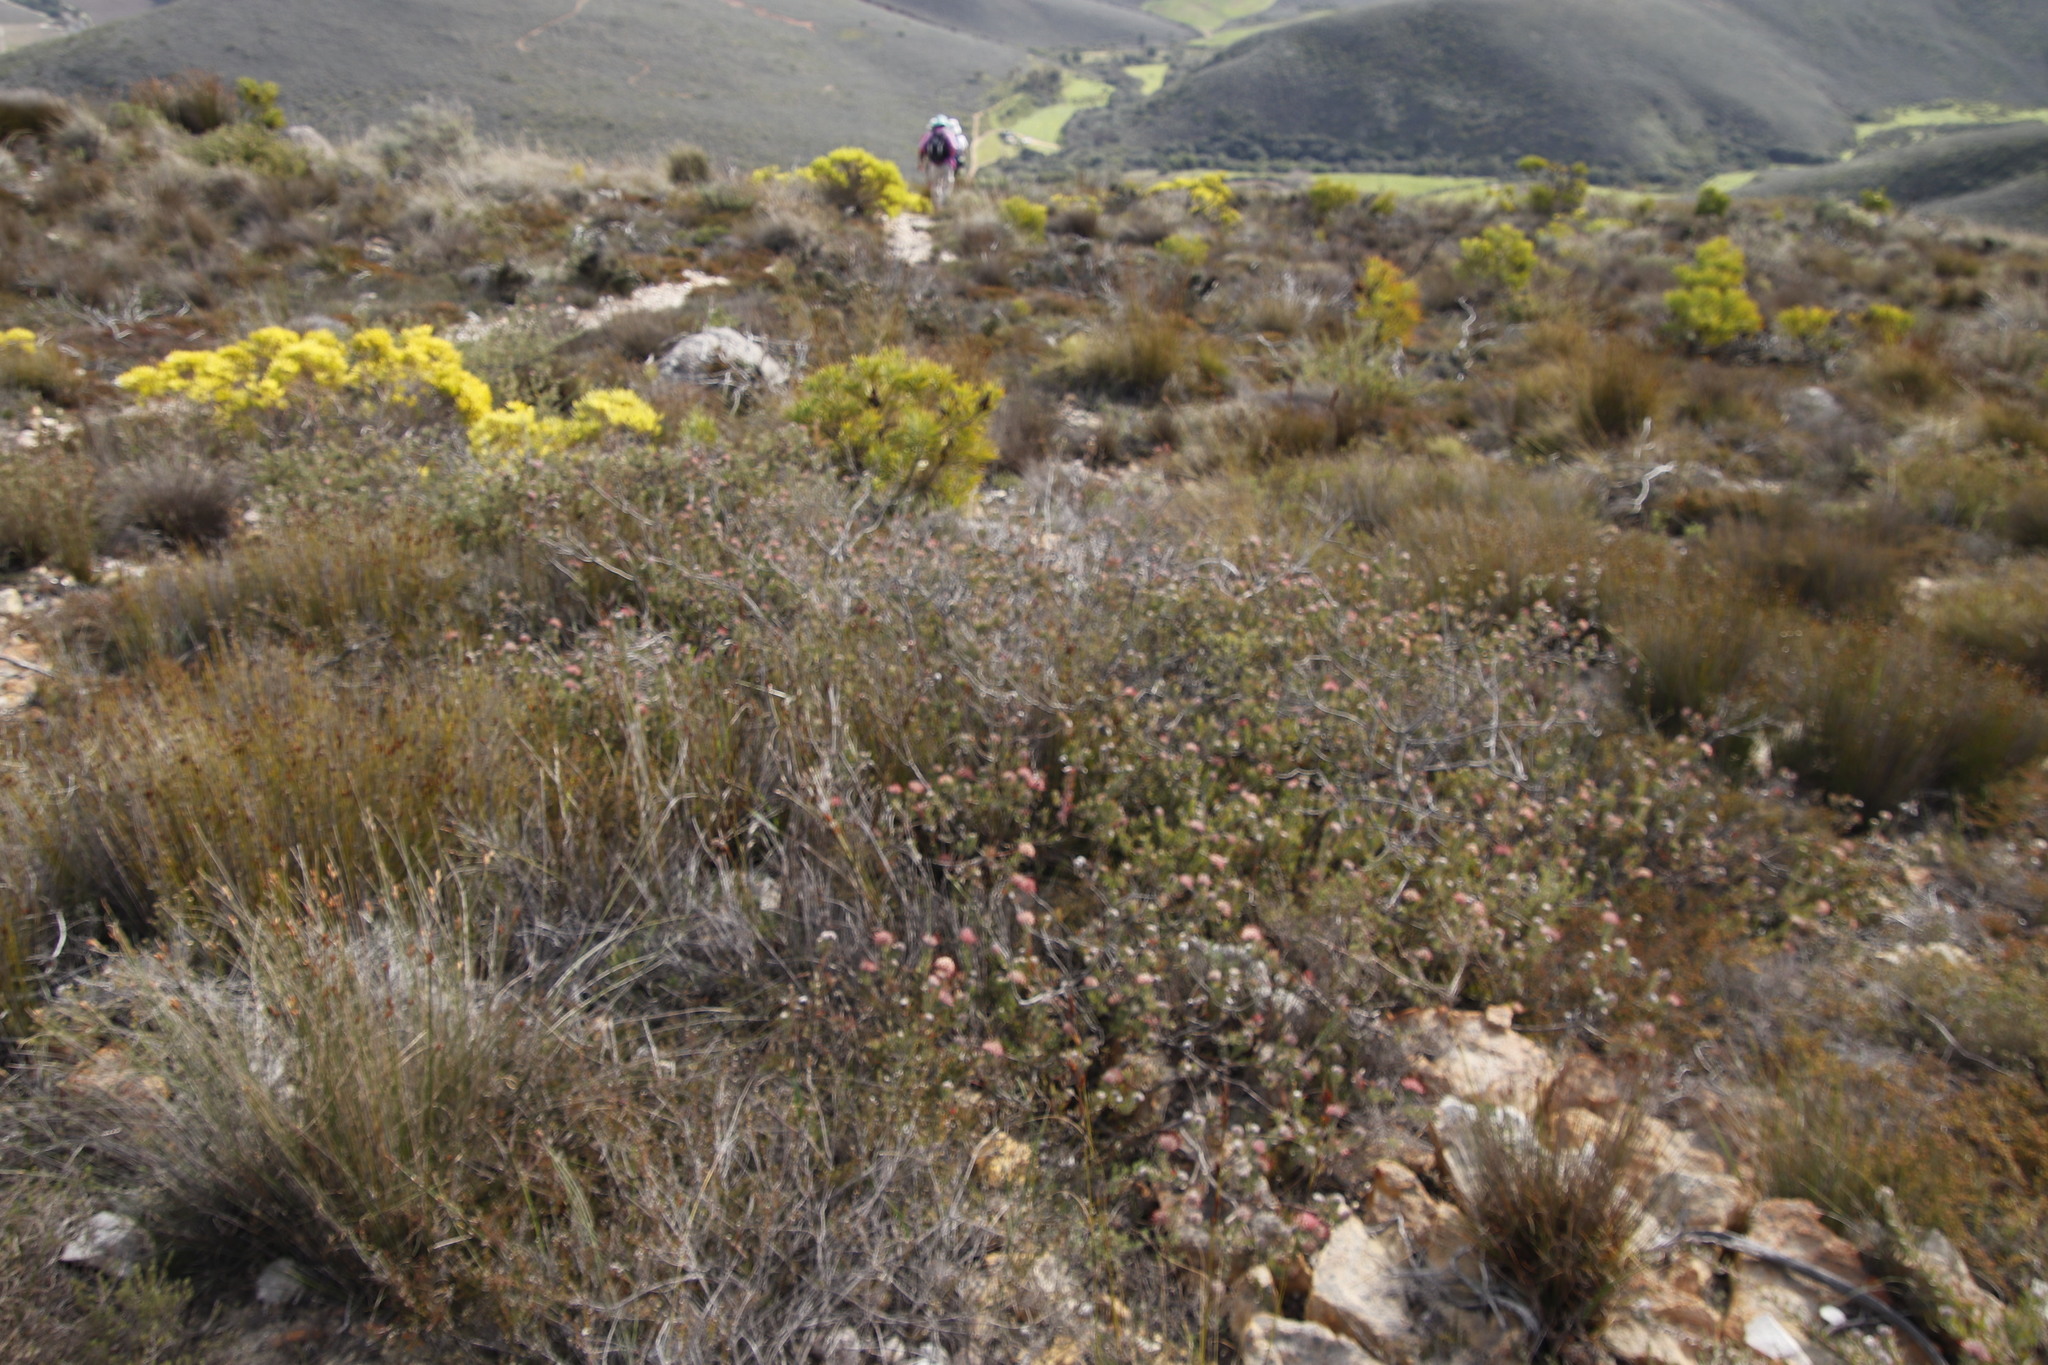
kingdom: Plantae
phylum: Tracheophyta
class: Magnoliopsida
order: Proteales
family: Proteaceae
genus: Leucospermum
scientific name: Leucospermum calligerum
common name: Arid pincushion
